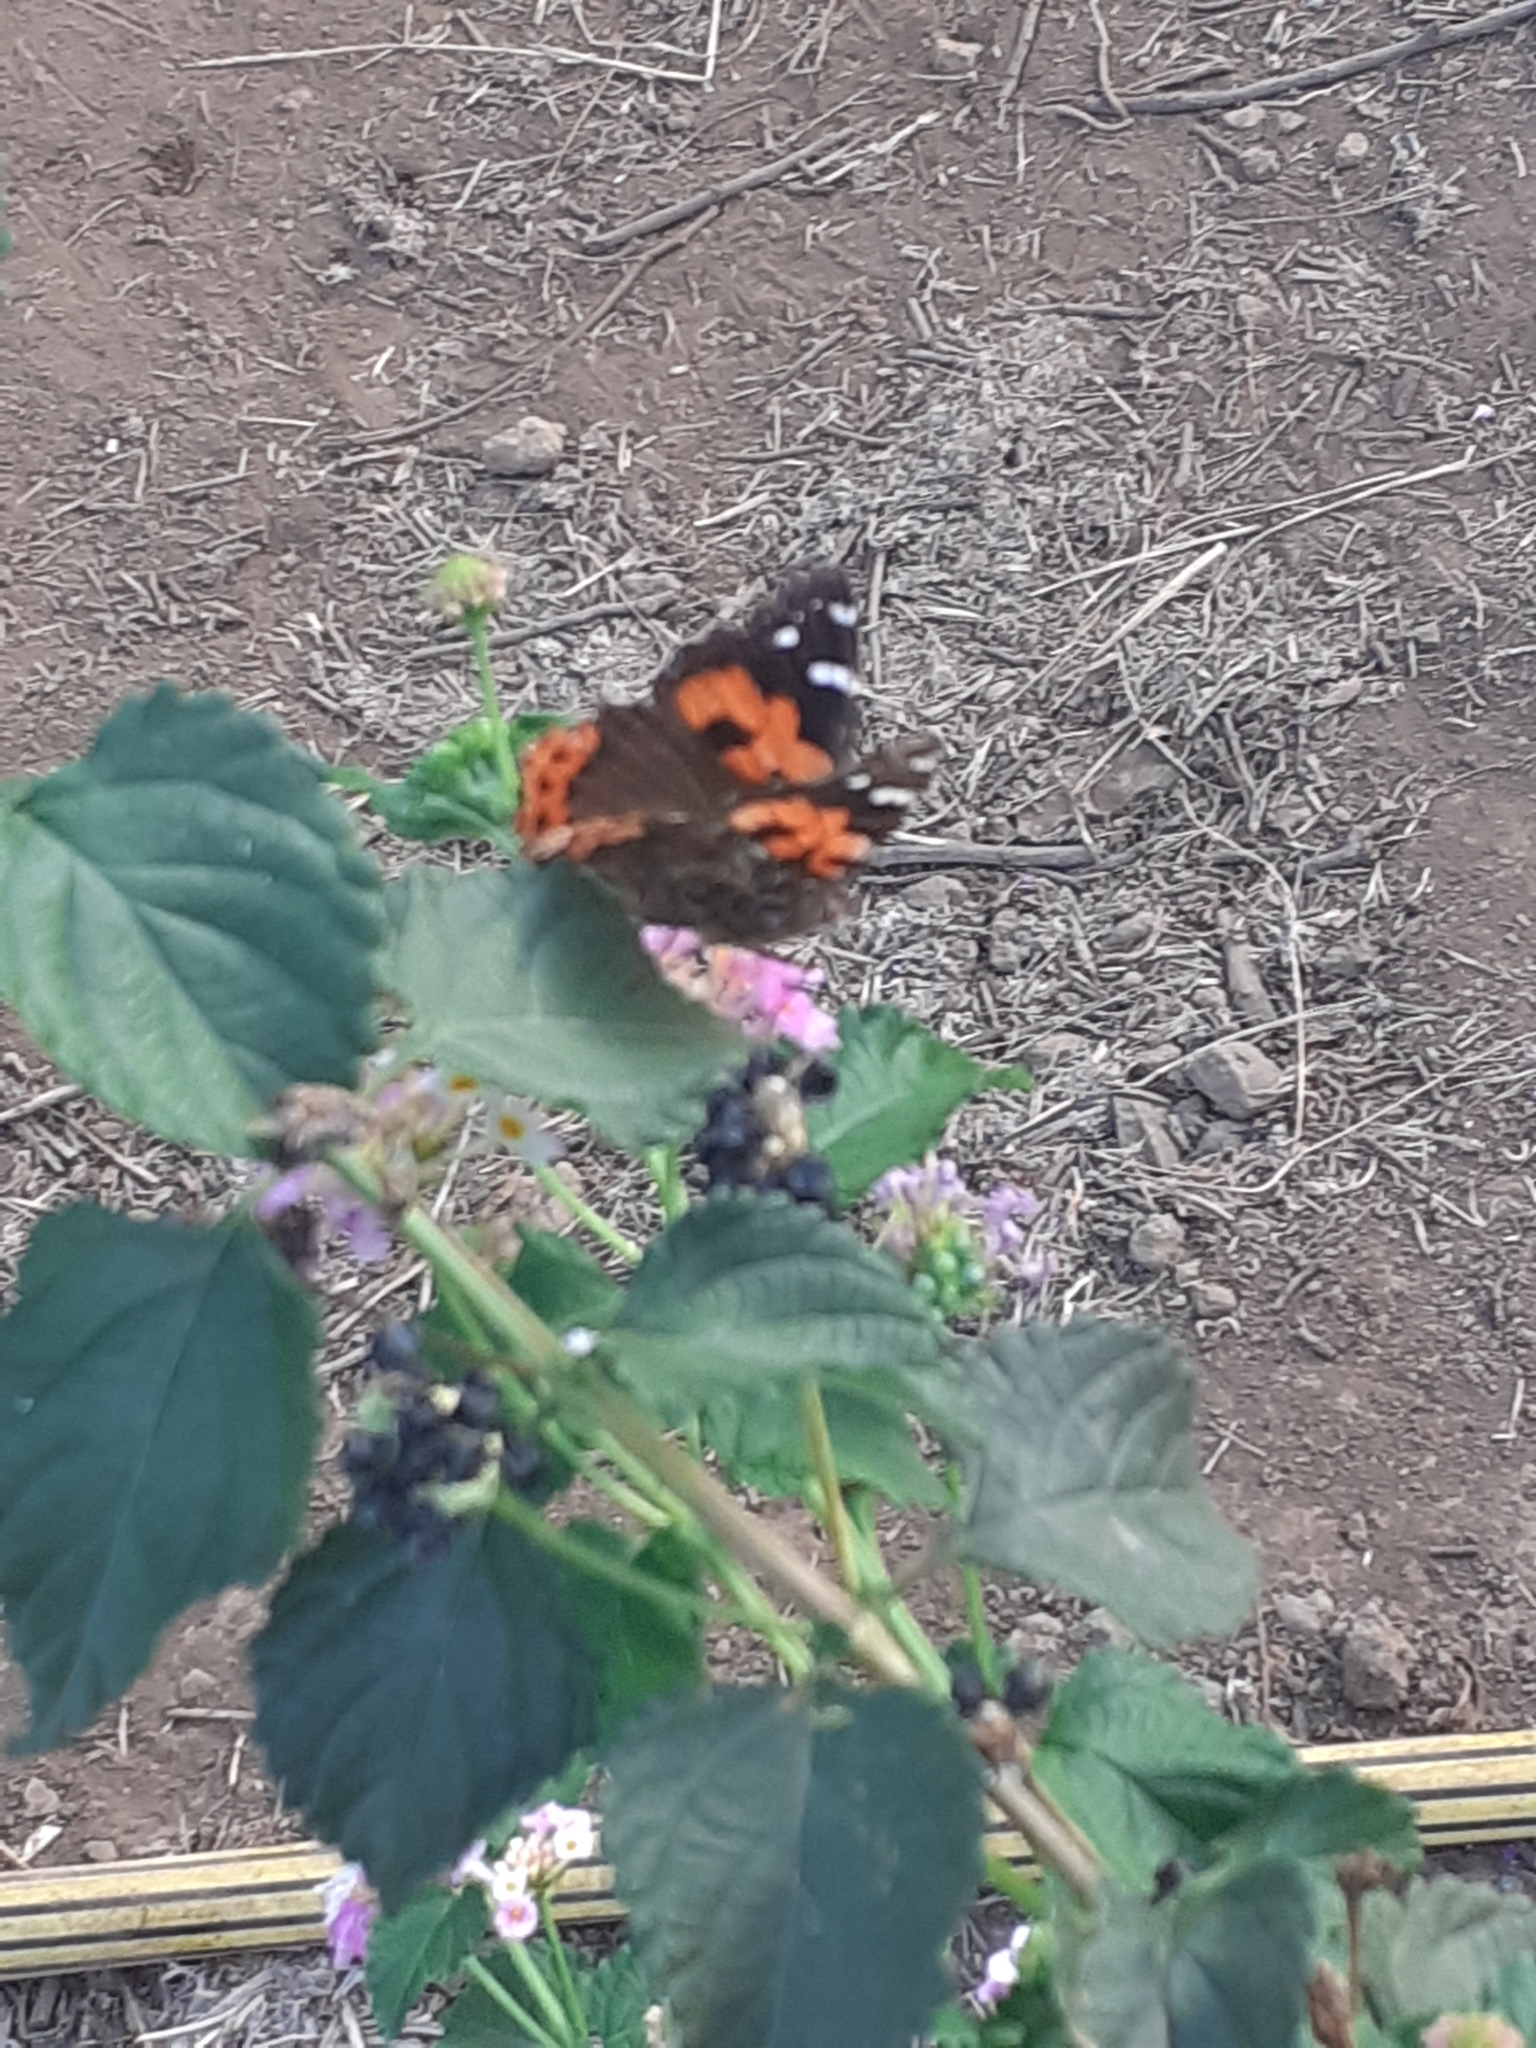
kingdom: Animalia
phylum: Arthropoda
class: Insecta
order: Lepidoptera
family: Nymphalidae
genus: Vanessa
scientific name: Vanessa vulcania
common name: Canary red admiral
